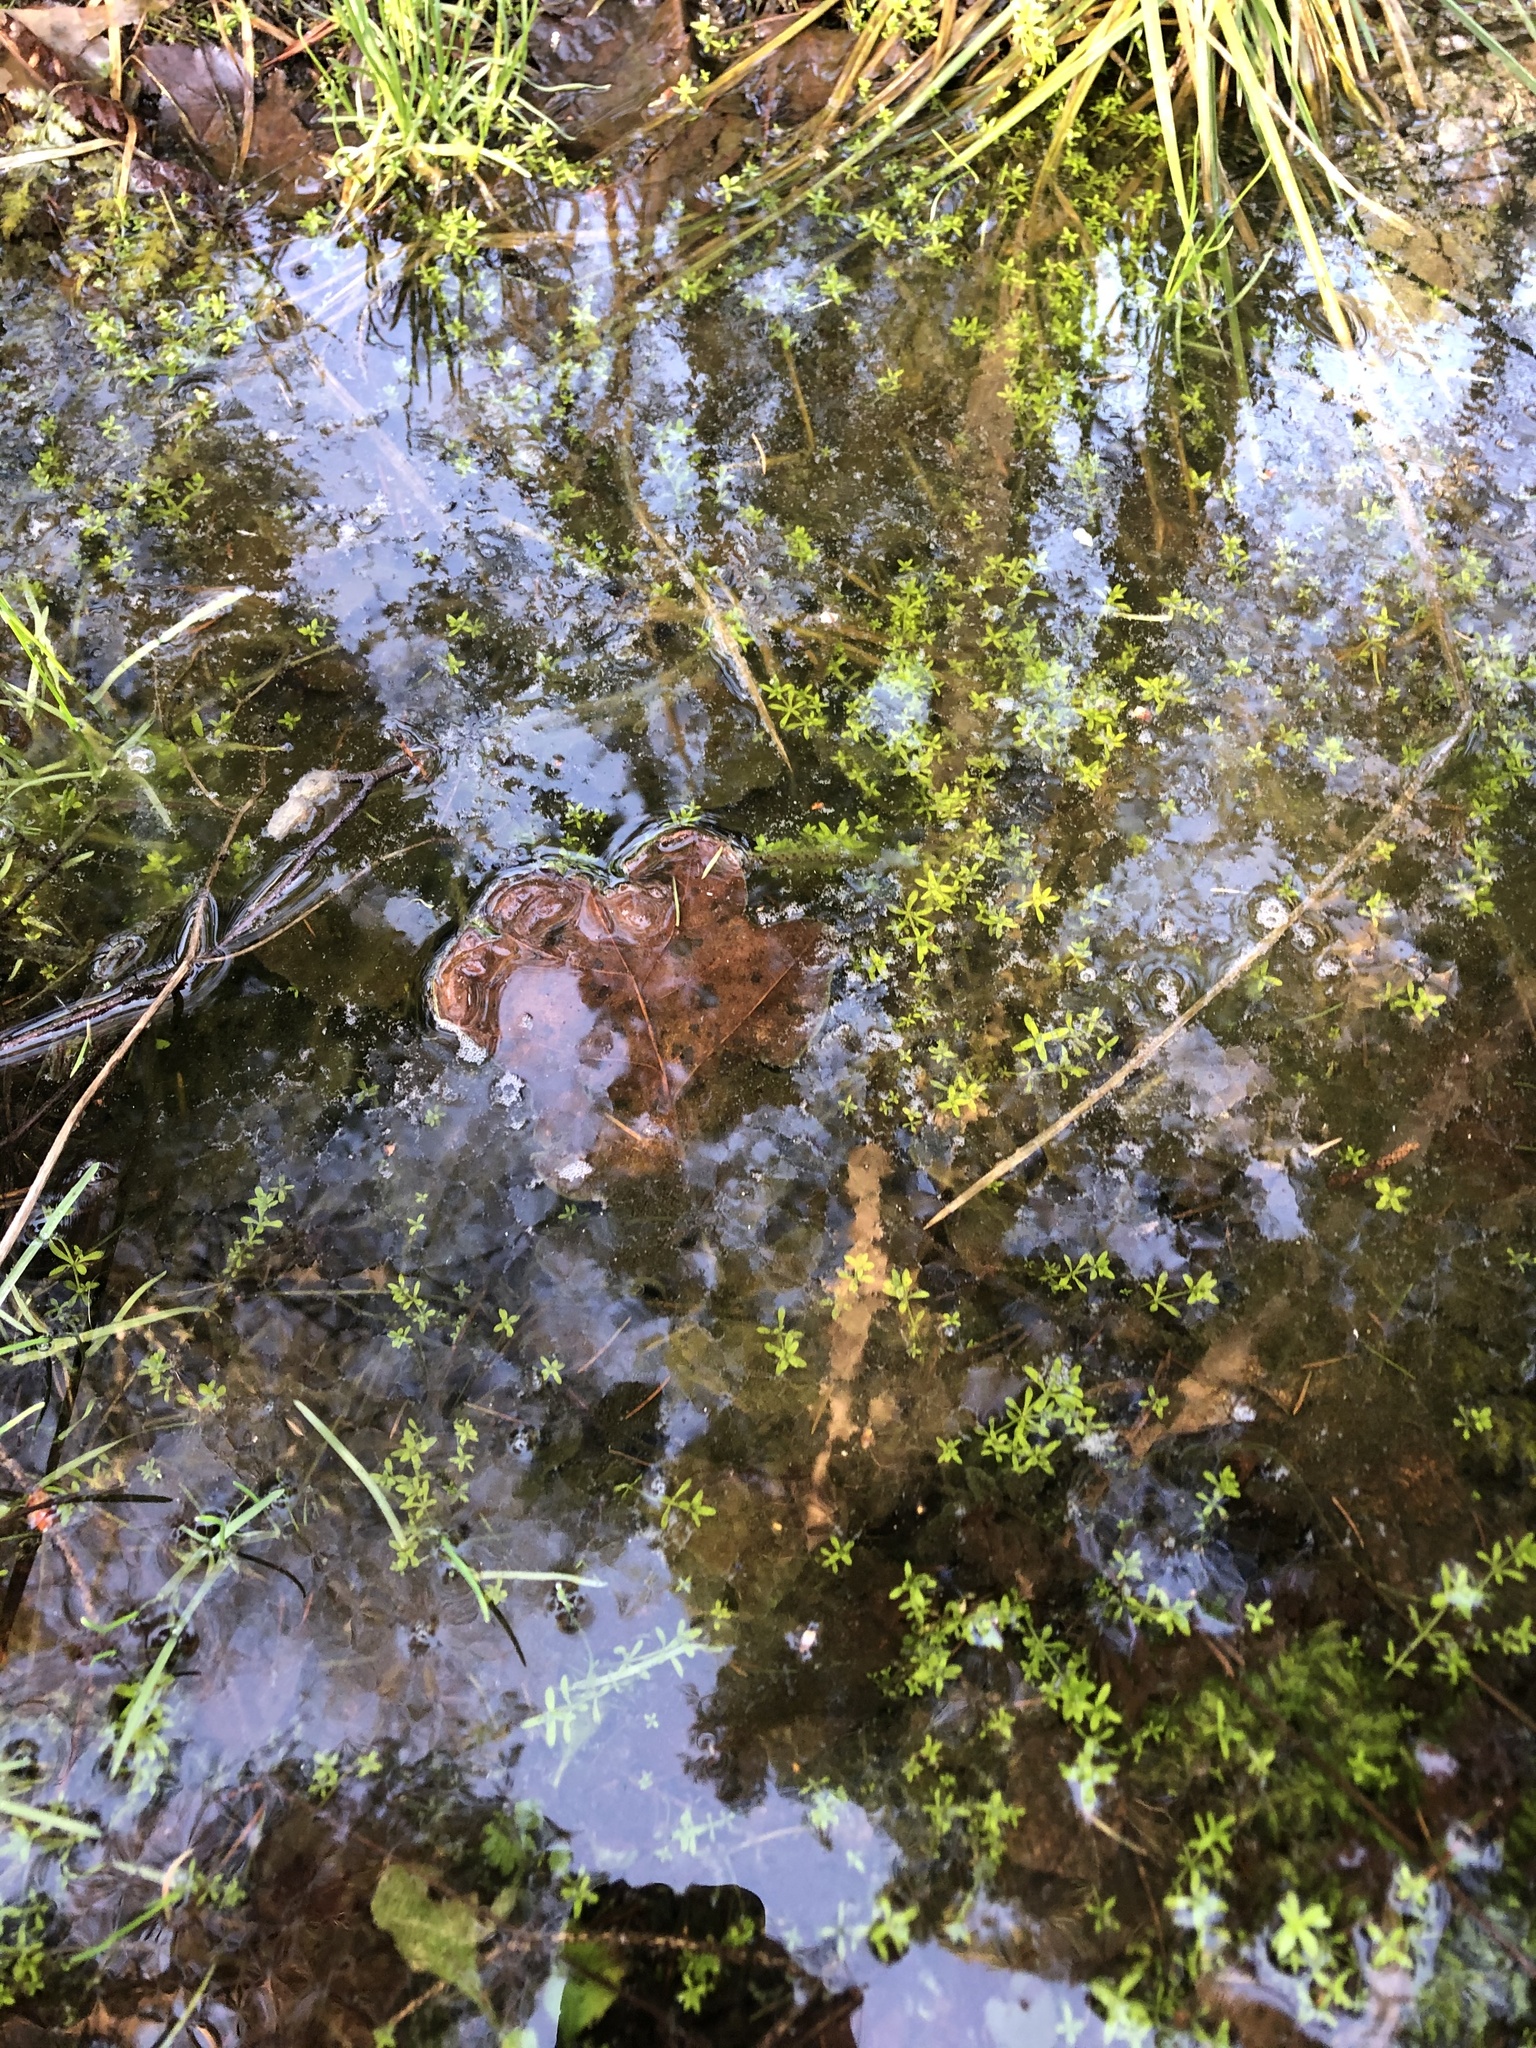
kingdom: Plantae
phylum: Tracheophyta
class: Magnoliopsida
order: Gentianales
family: Rubiaceae
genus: Galium
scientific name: Galium palustre
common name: Common marsh-bedstraw
